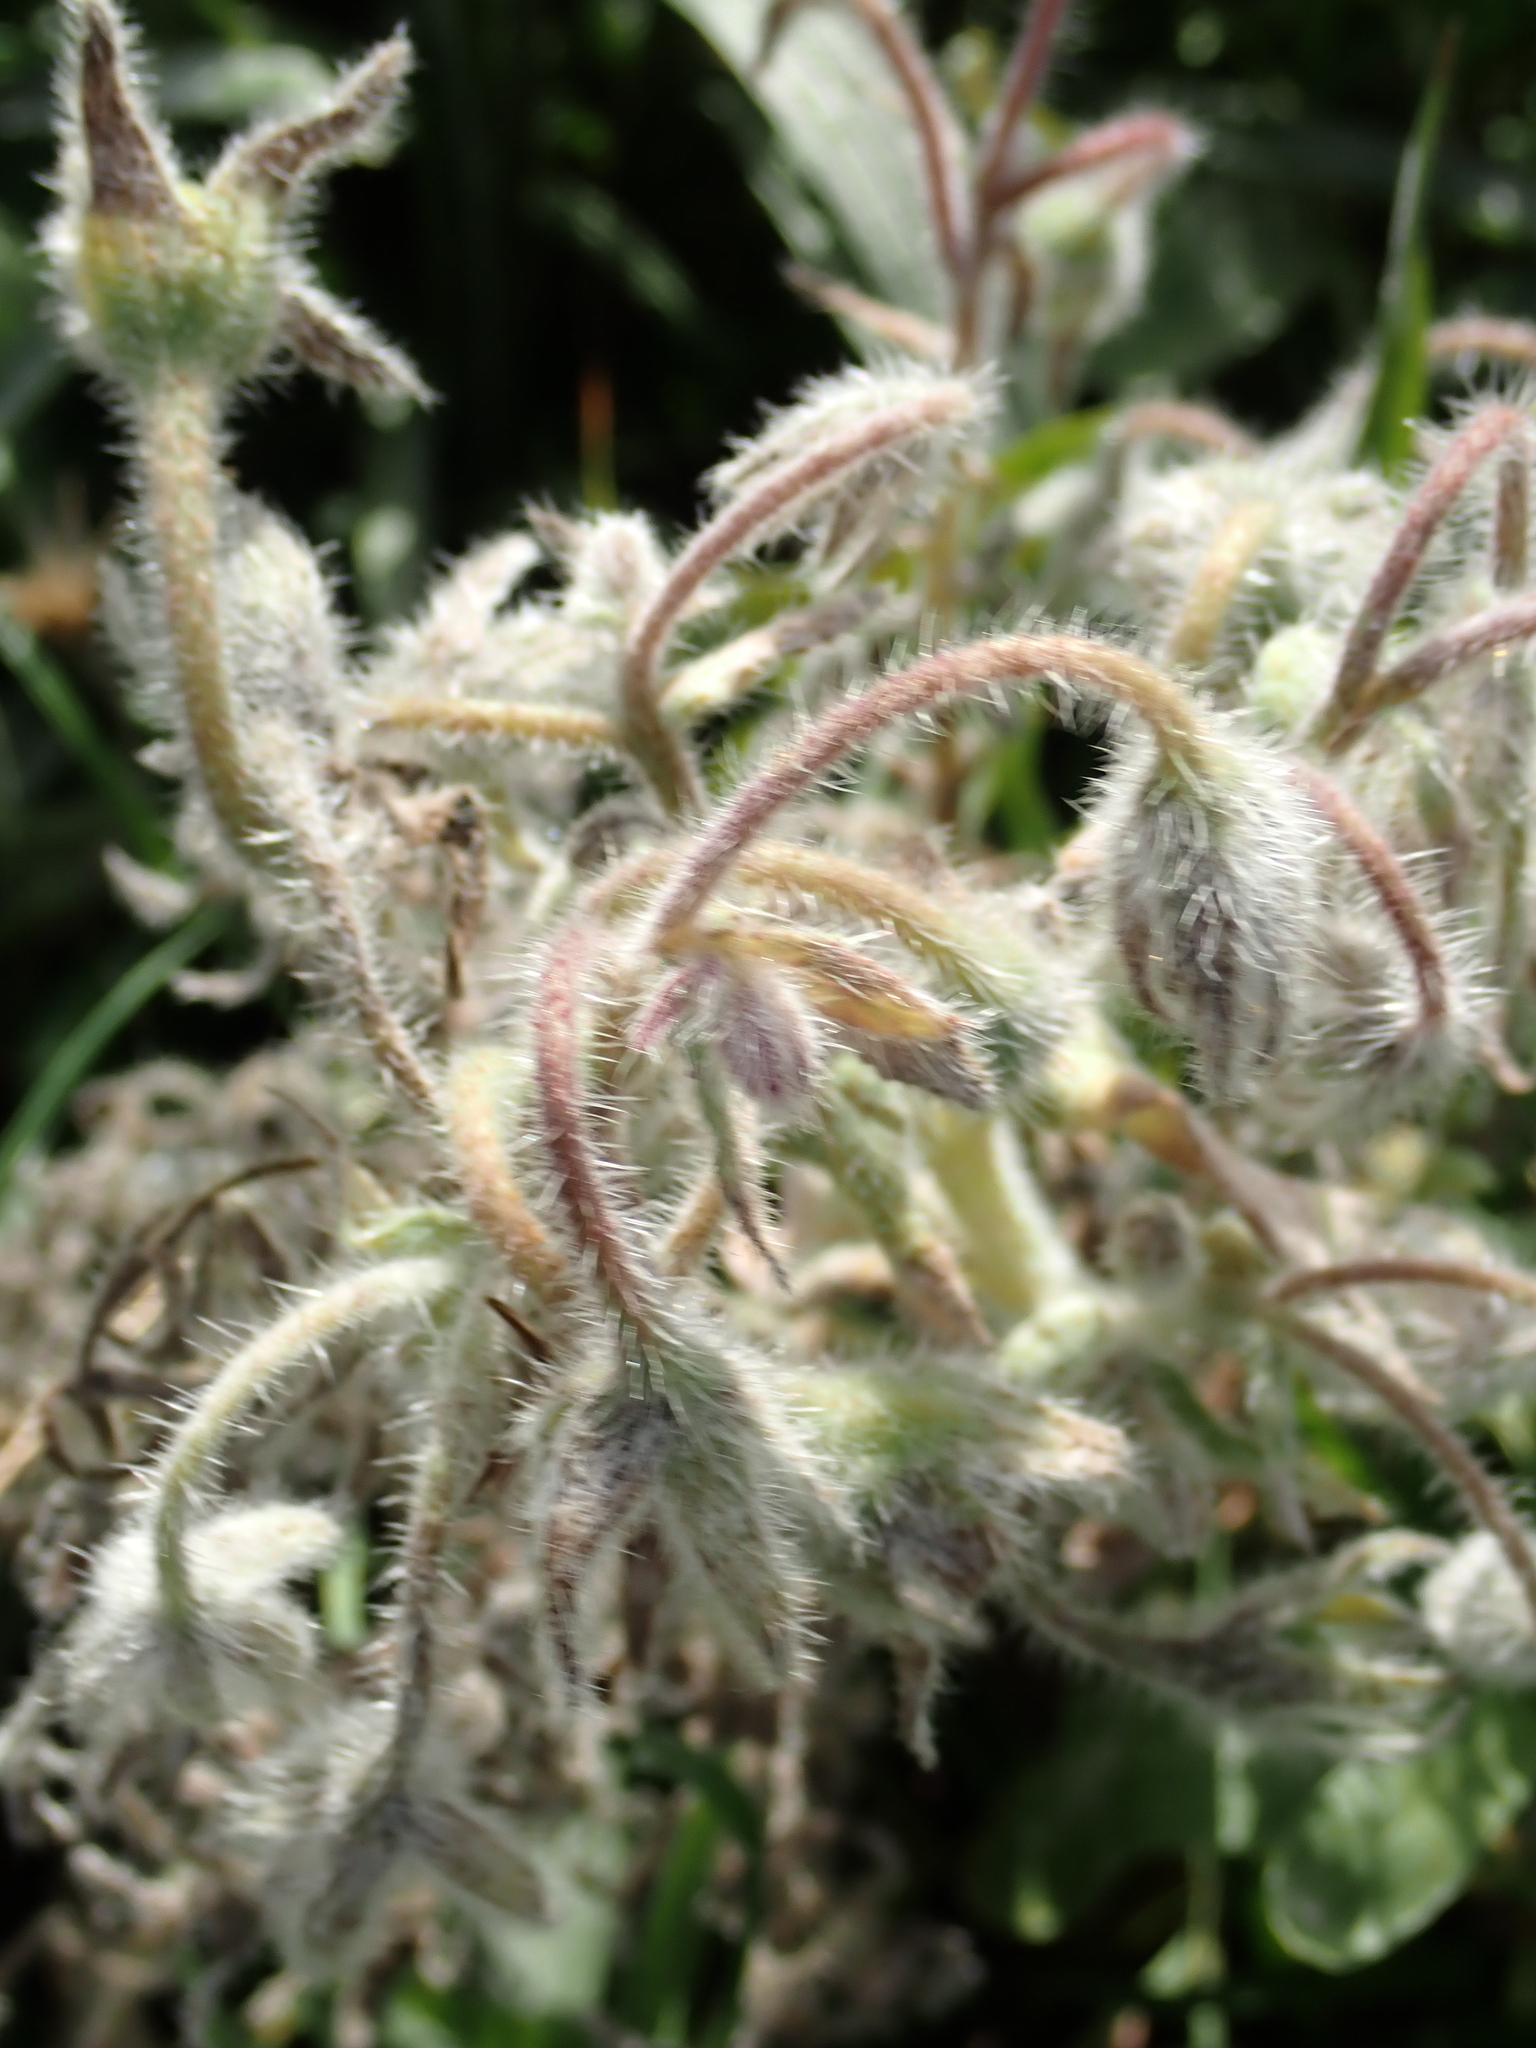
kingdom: Plantae
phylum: Tracheophyta
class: Magnoliopsida
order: Boraginales
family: Boraginaceae
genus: Borago
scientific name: Borago officinalis
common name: Borage
